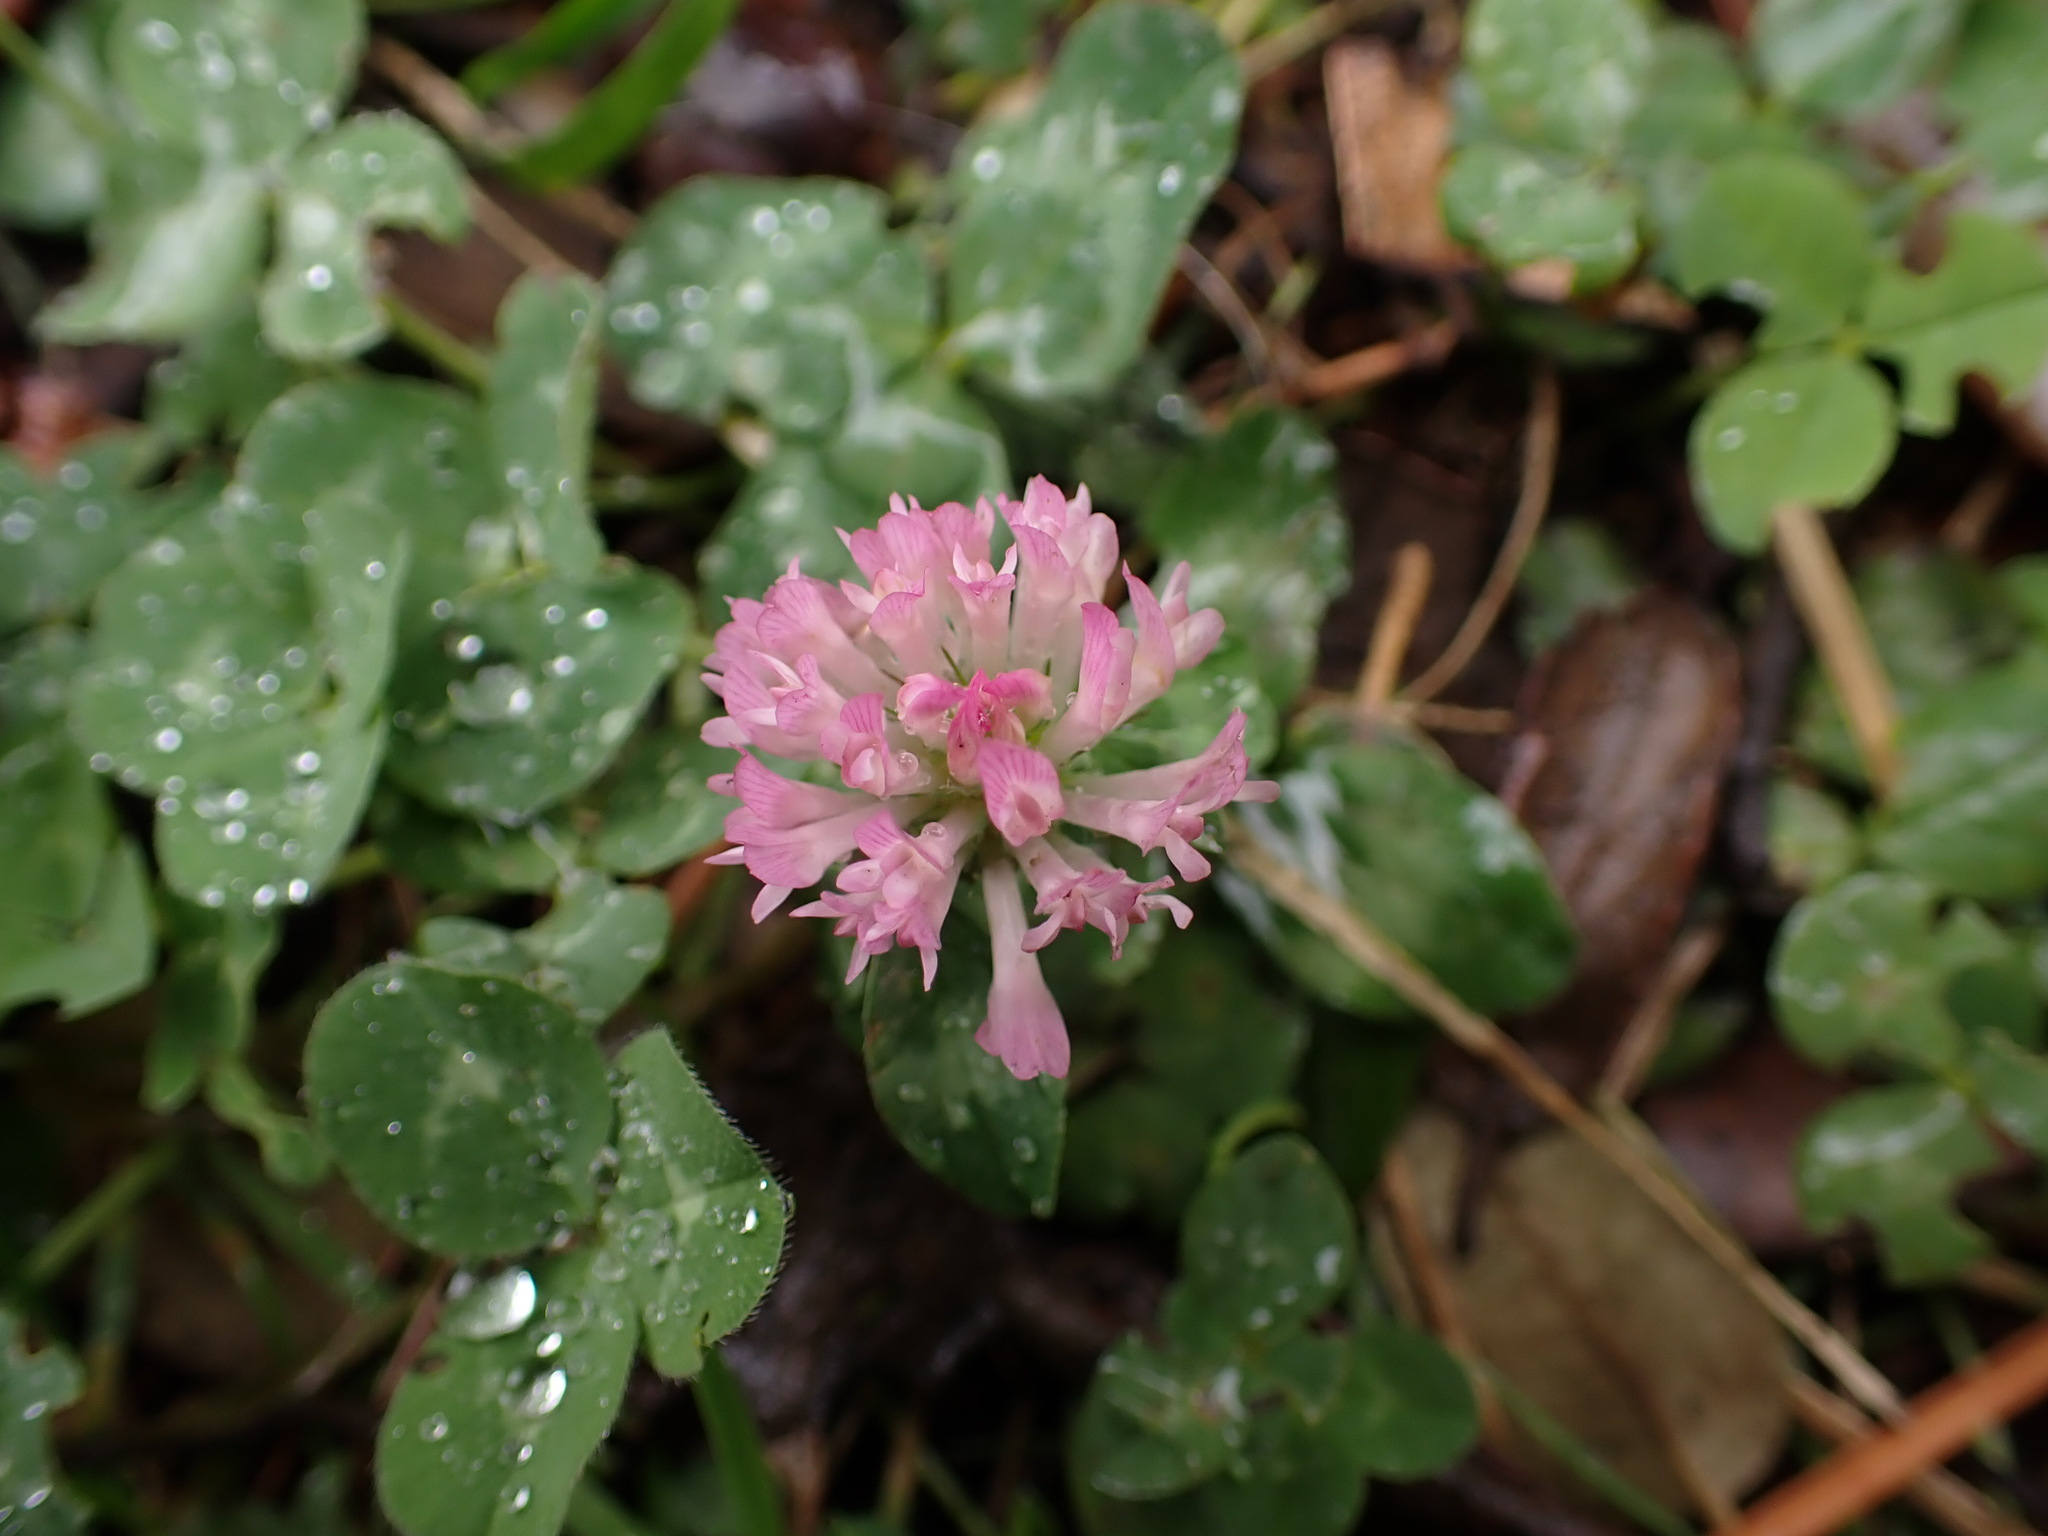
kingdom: Plantae
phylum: Tracheophyta
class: Magnoliopsida
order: Fabales
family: Fabaceae
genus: Trifolium
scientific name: Trifolium pratense
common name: Red clover
